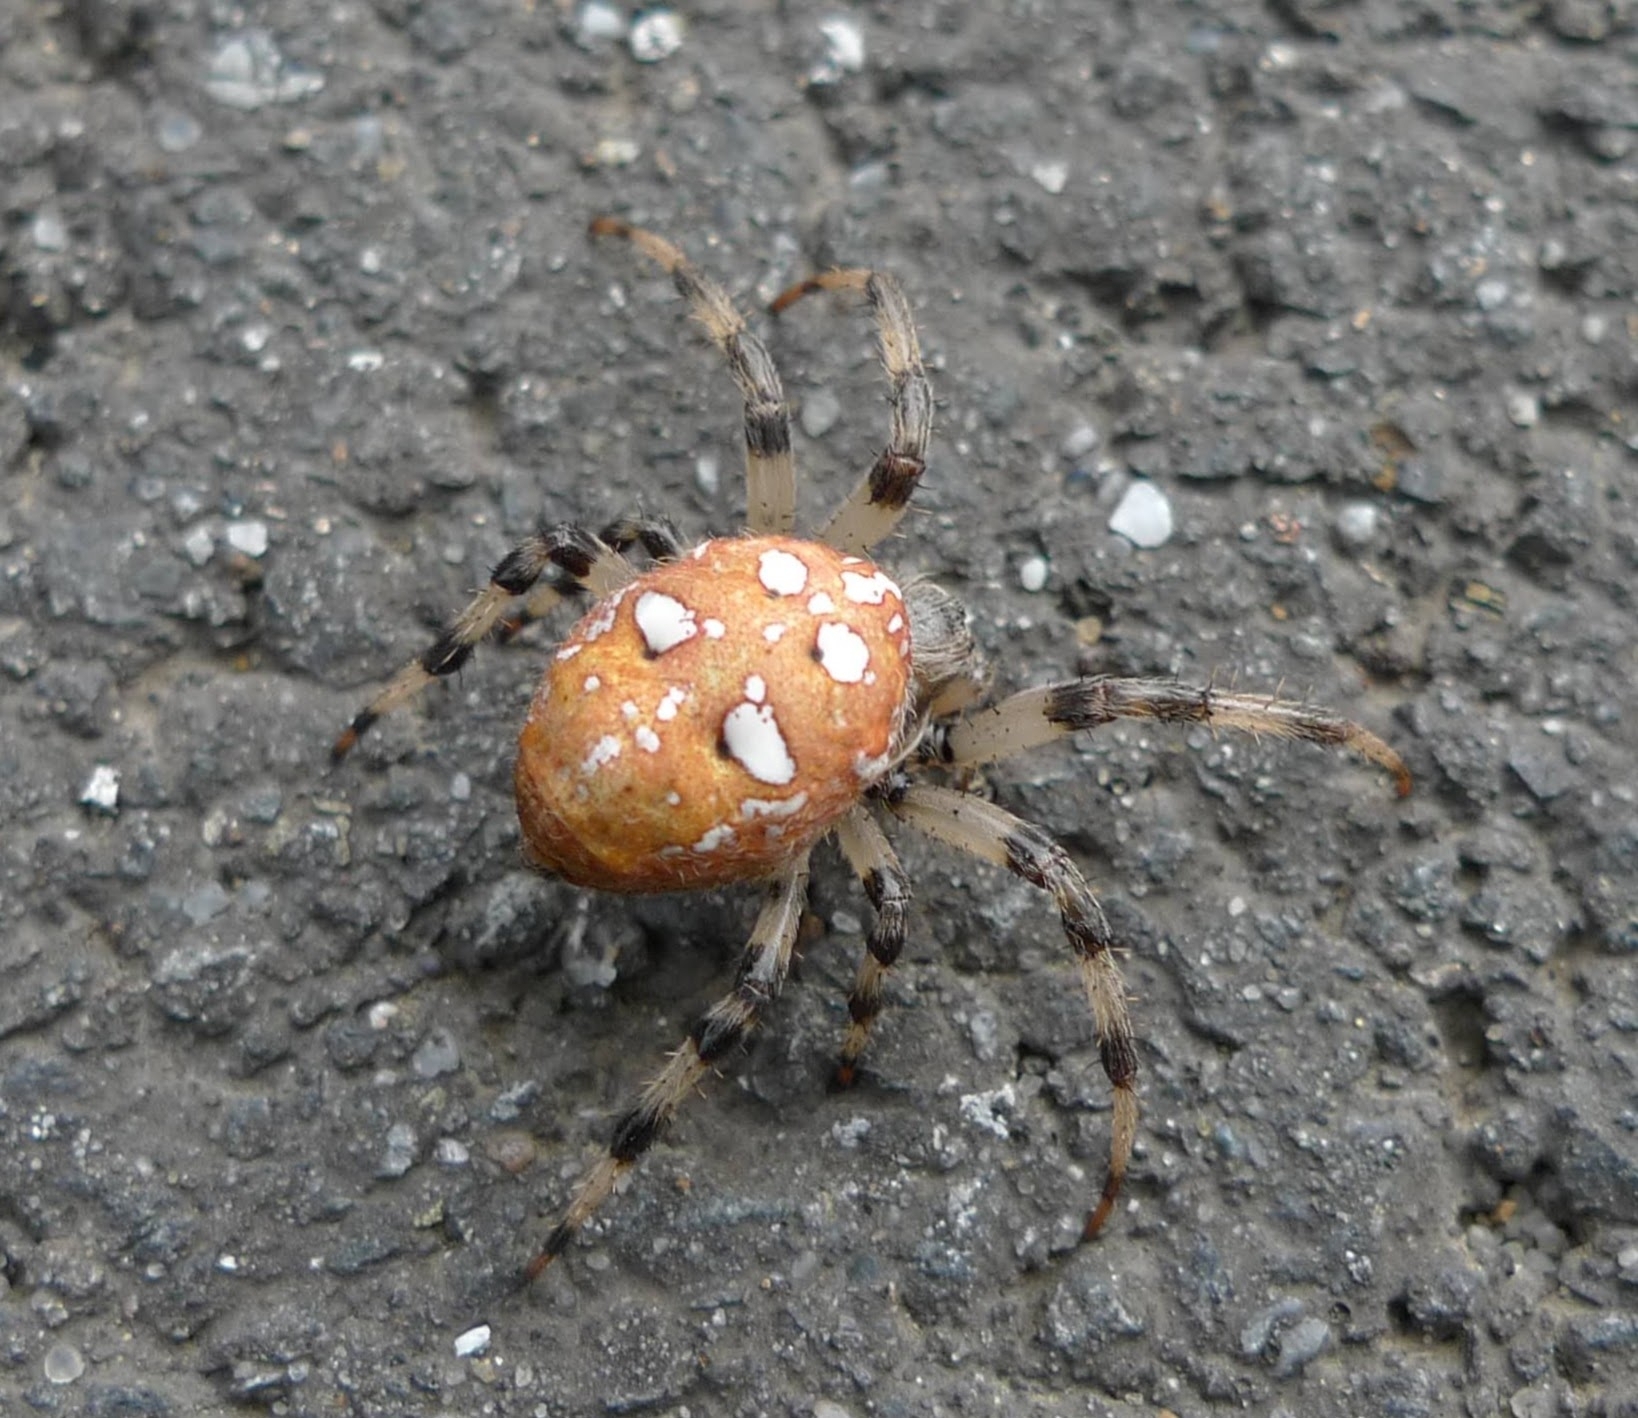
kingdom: Animalia
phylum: Arthropoda
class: Arachnida
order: Araneae
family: Araneidae
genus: Araneus
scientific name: Araneus quadratus
